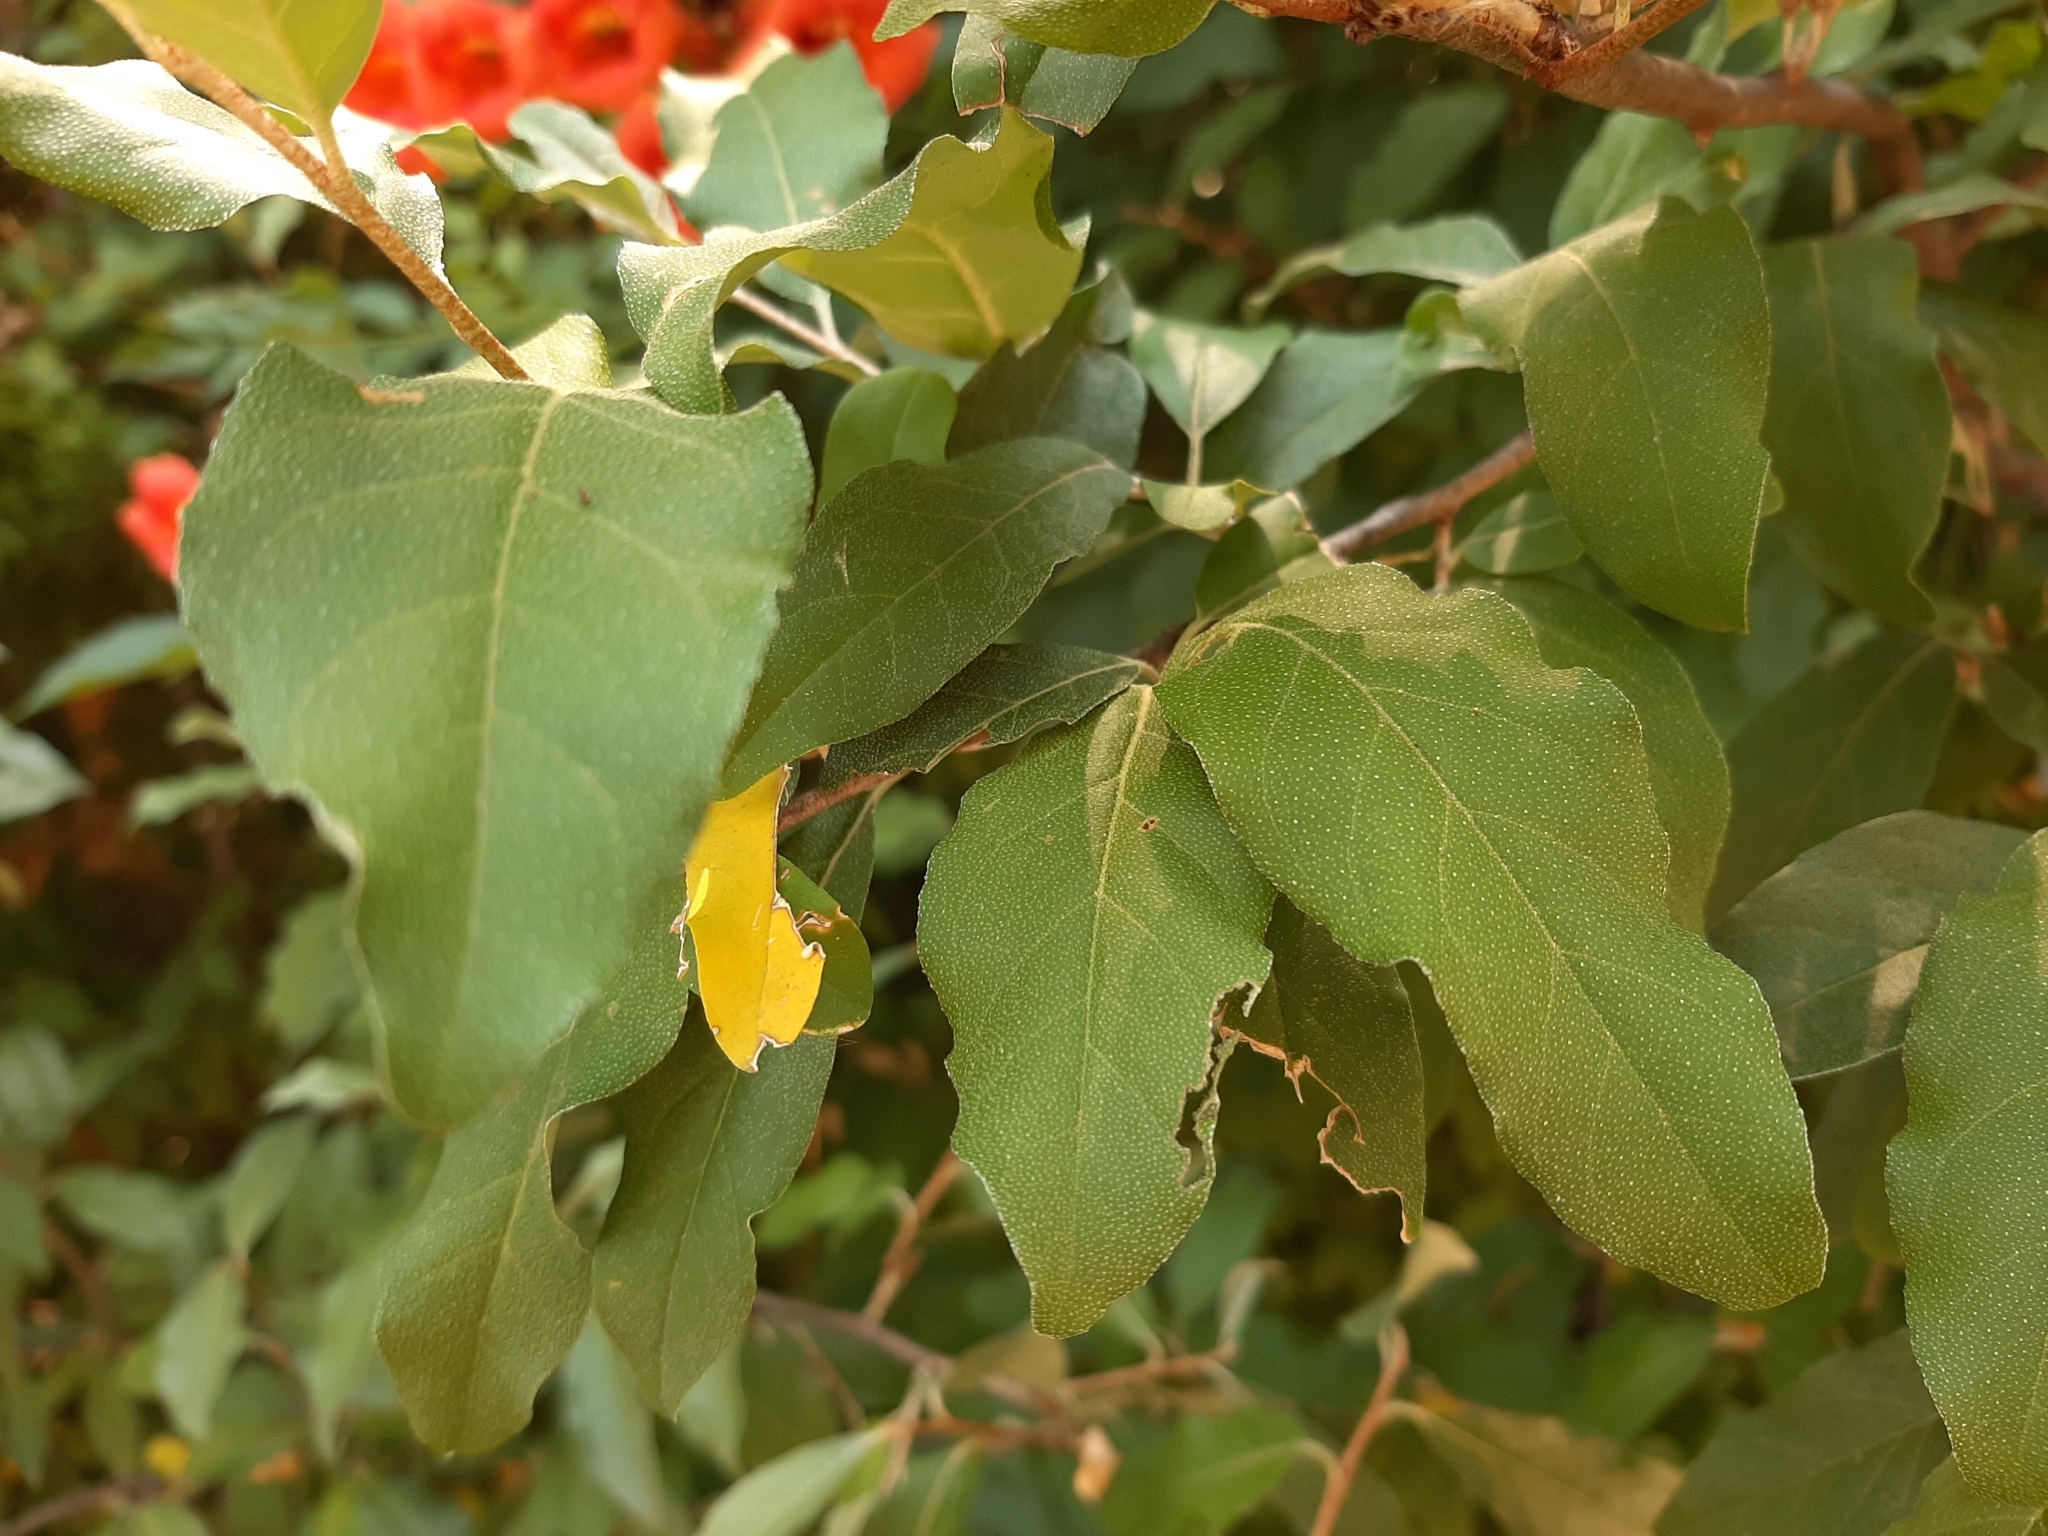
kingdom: Plantae
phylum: Tracheophyta
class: Magnoliopsida
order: Lamiales
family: Bignoniaceae
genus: Campsis
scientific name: Campsis radicans
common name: Trumpet-creeper
